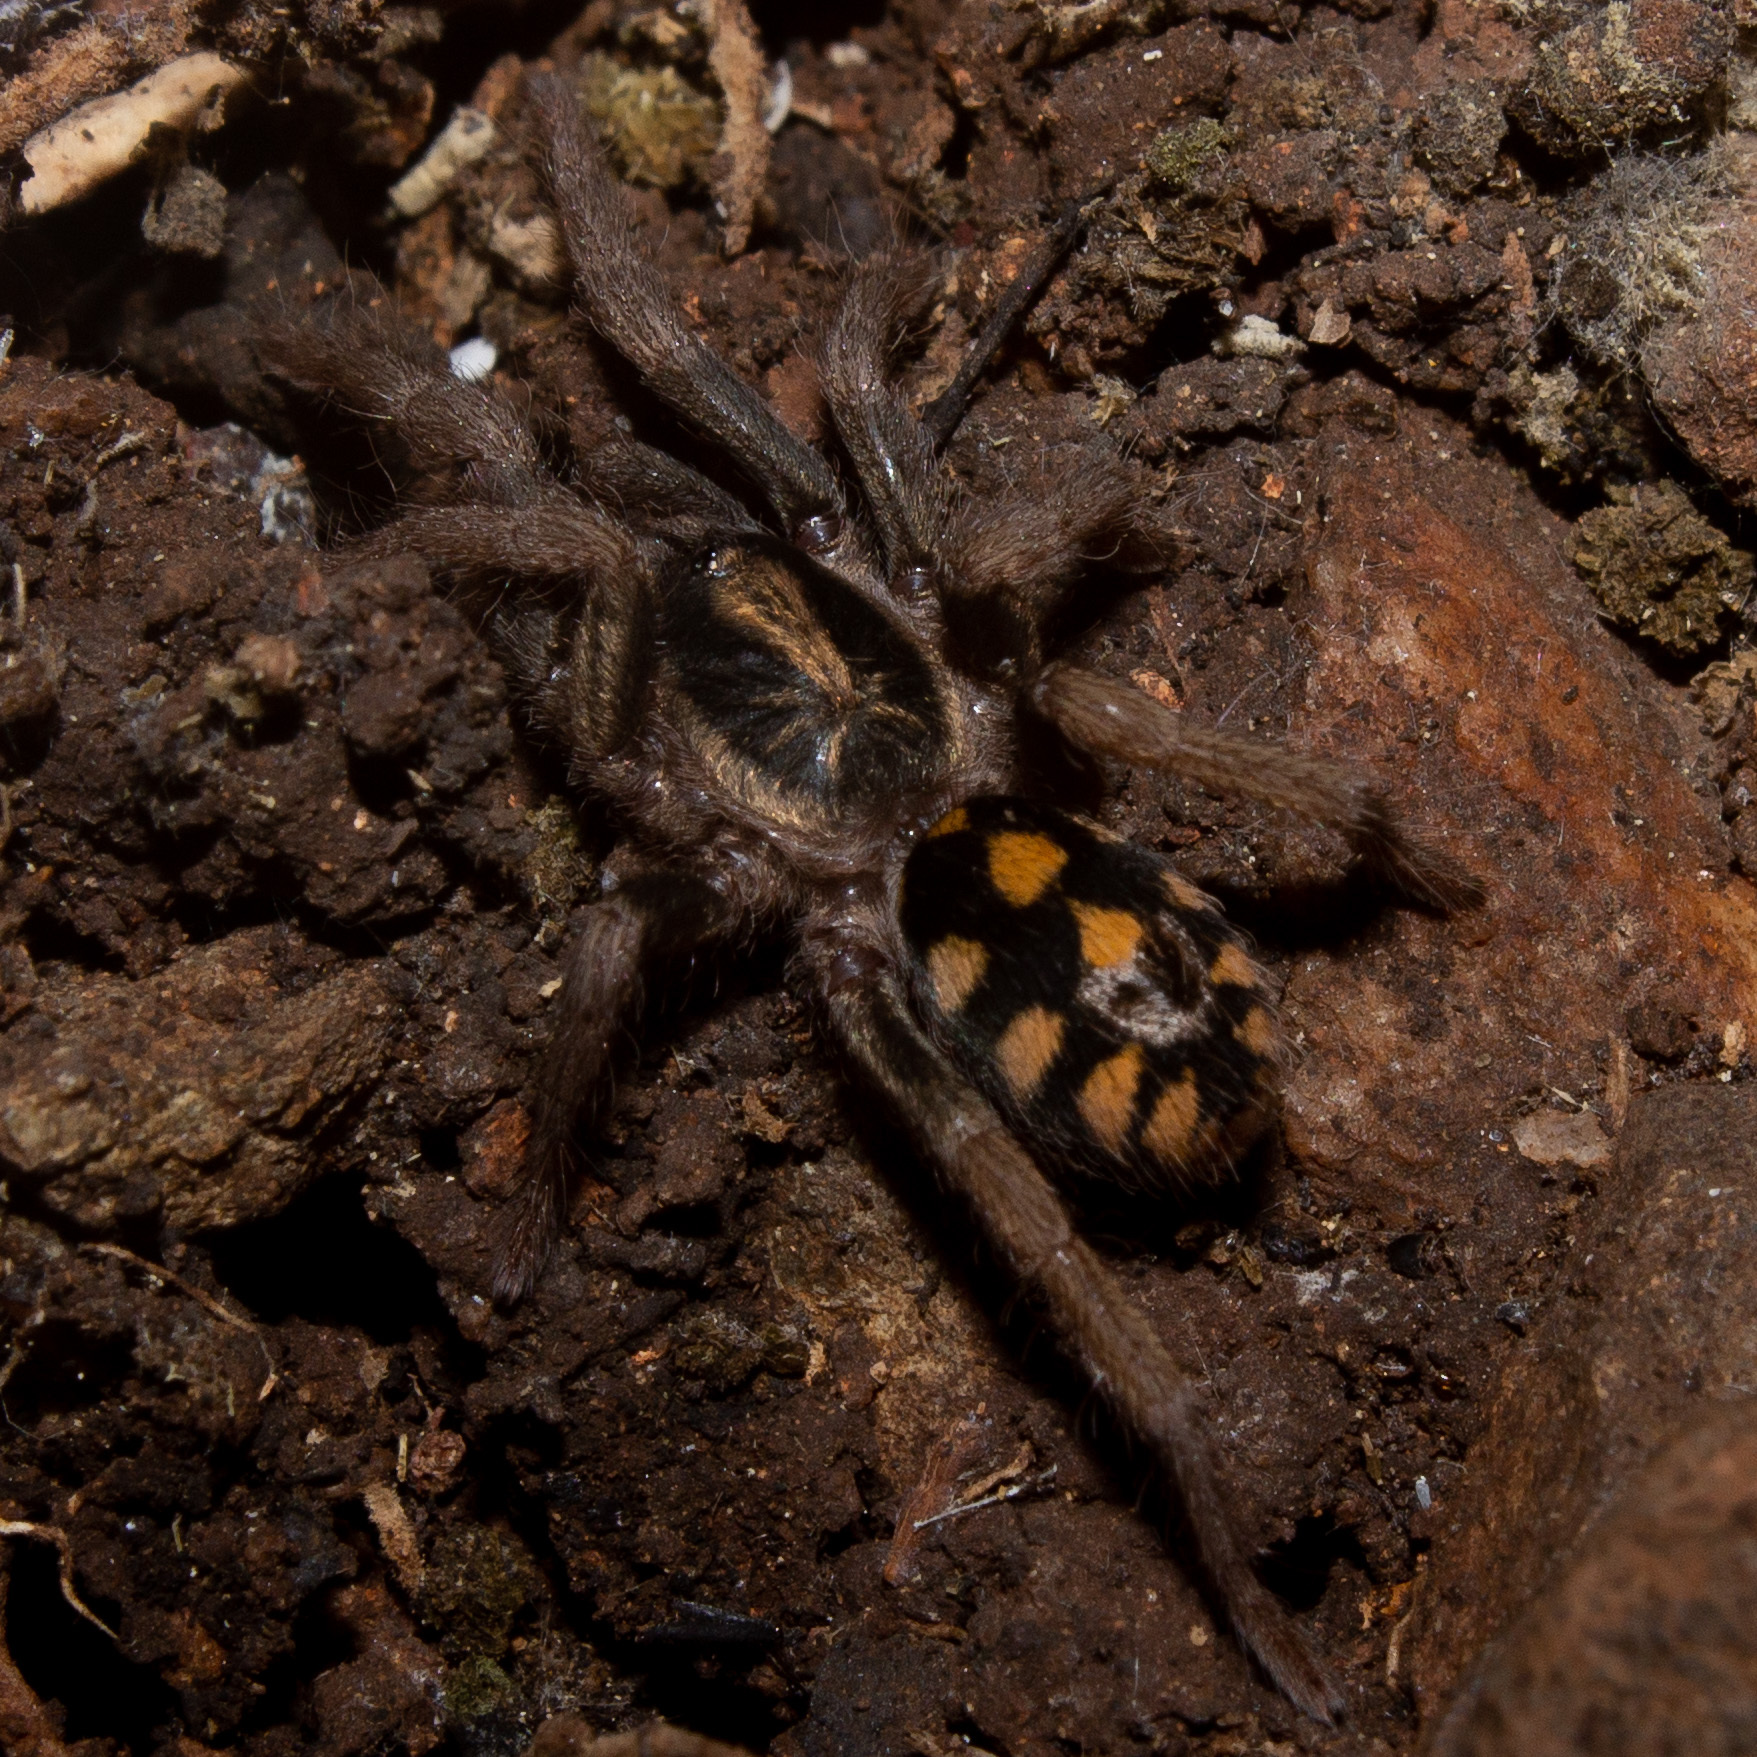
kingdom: Animalia
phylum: Arthropoda
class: Arachnida
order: Araneae
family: Theraphosidae
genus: Hapalopus
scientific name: Hapalopus formosus
